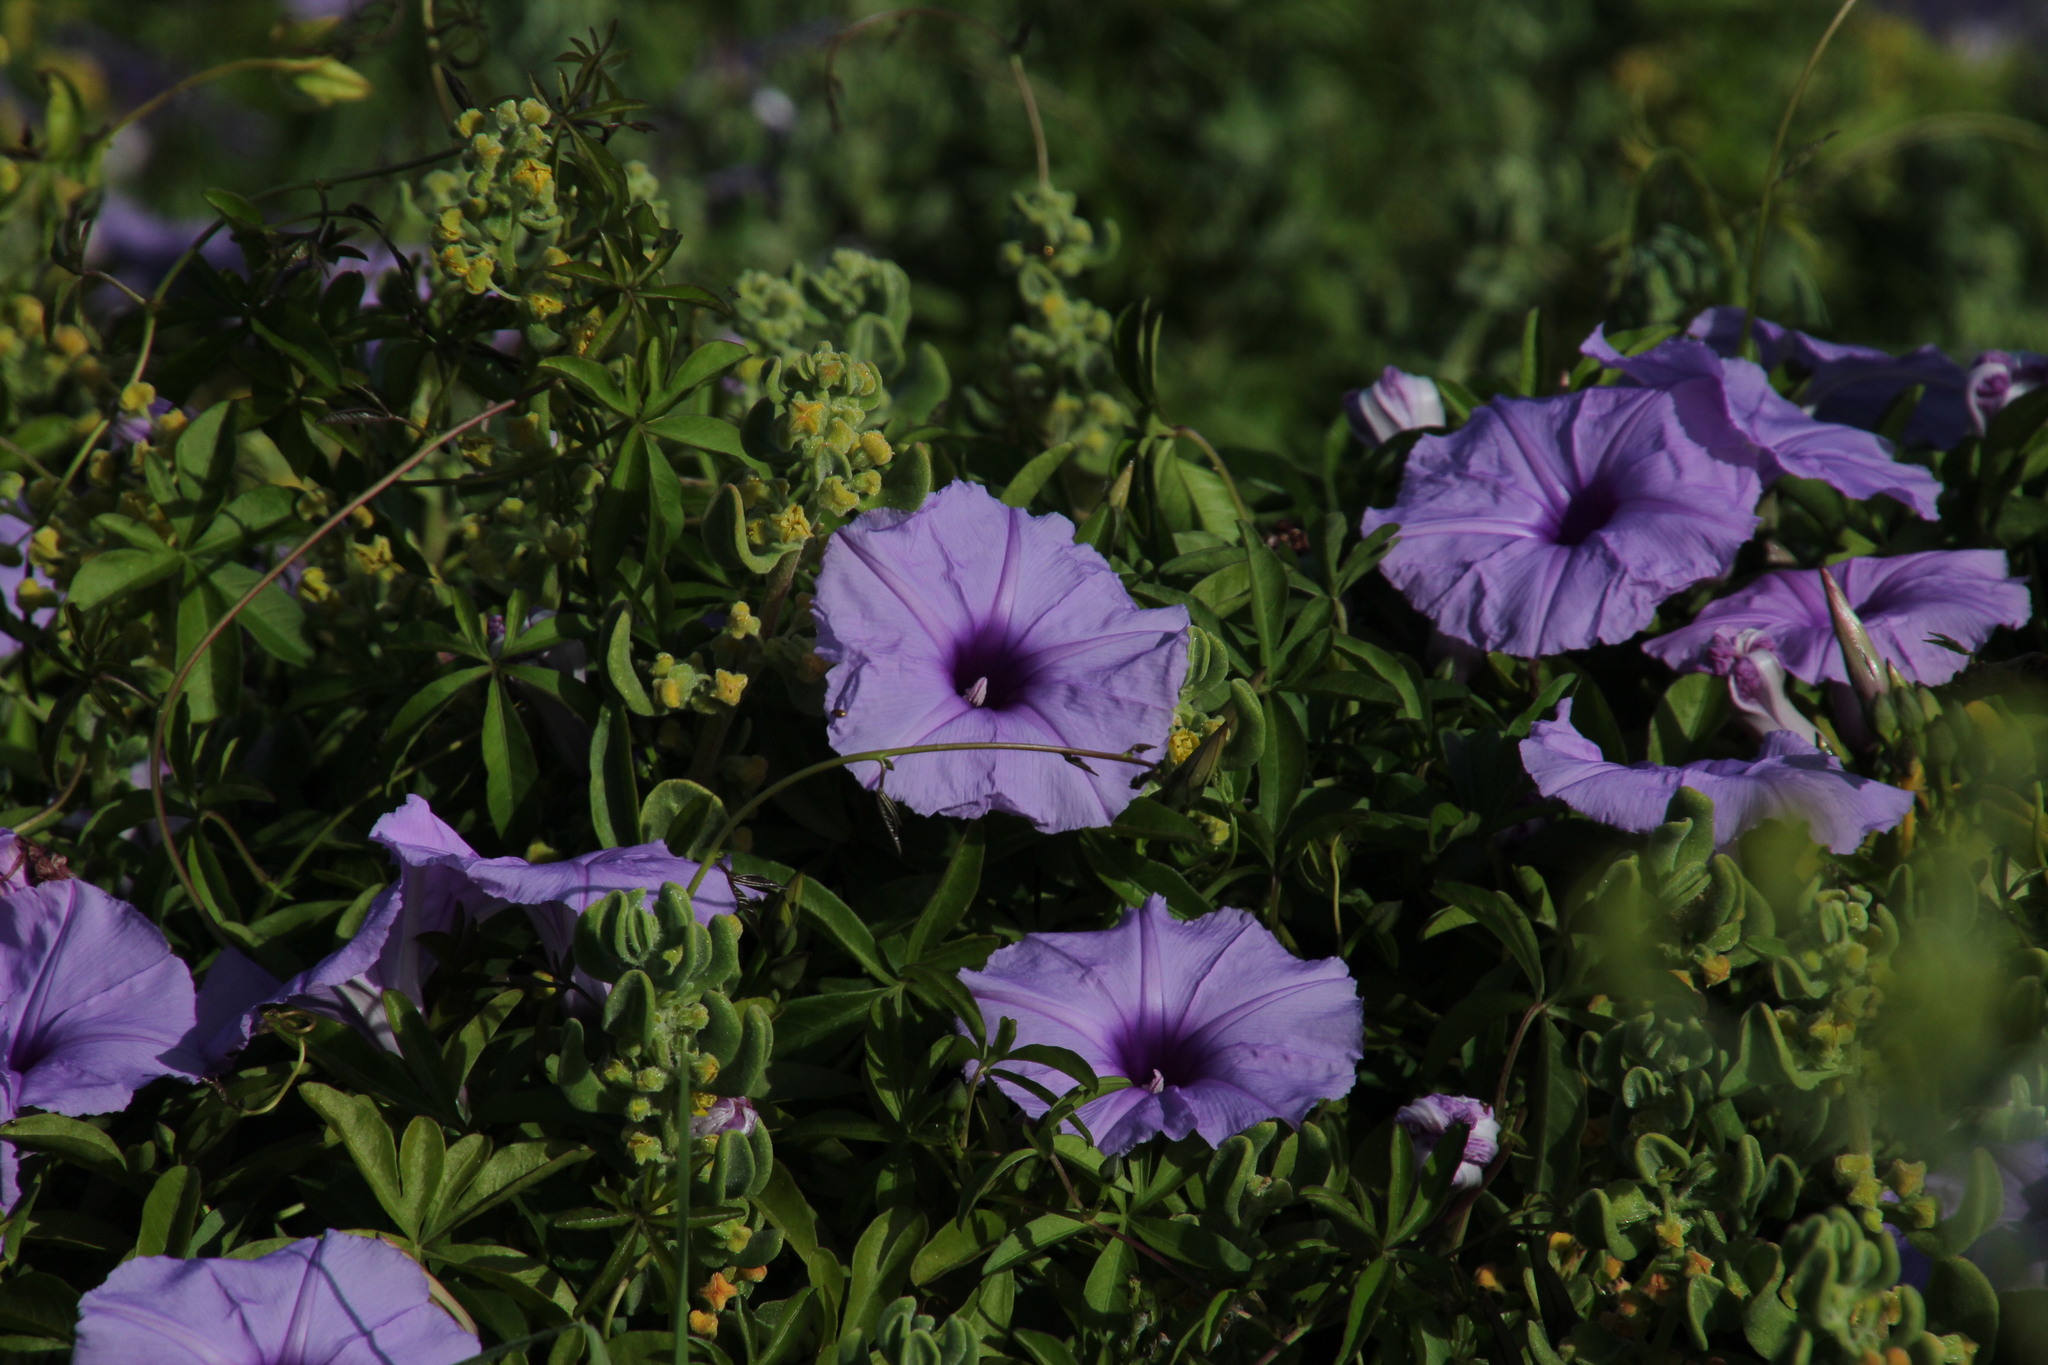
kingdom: Plantae
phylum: Tracheophyta
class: Magnoliopsida
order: Solanales
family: Convolvulaceae
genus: Ipomoea
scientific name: Ipomoea cairica
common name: Mile a minute vine
